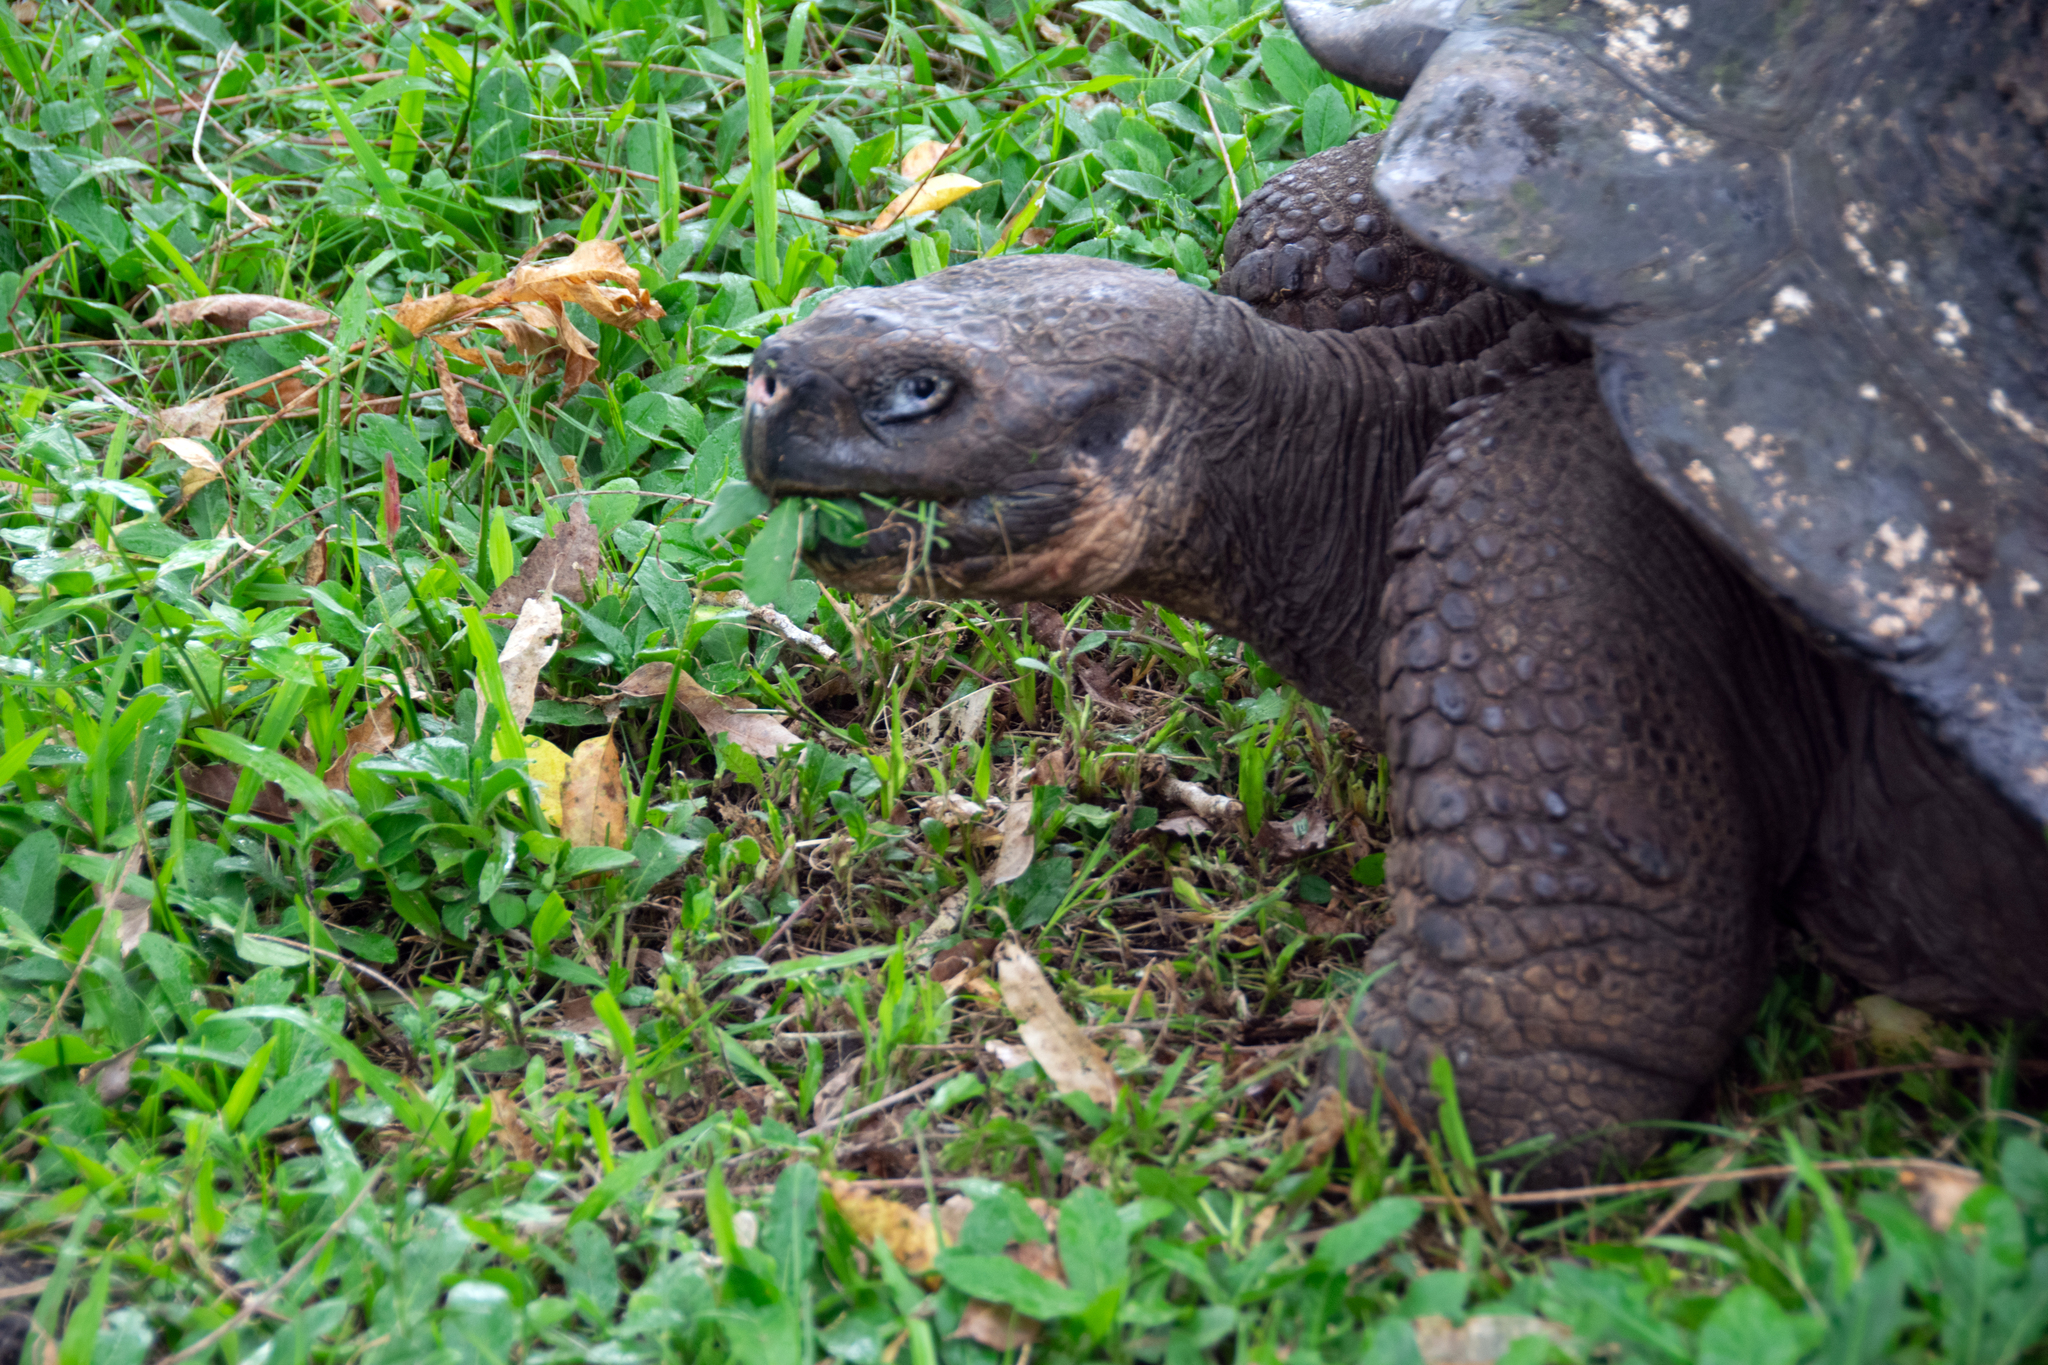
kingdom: Animalia
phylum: Chordata
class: Testudines
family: Testudinidae
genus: Chelonoidis
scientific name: Chelonoidis porteri
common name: Indefatigable island giant tortoise
